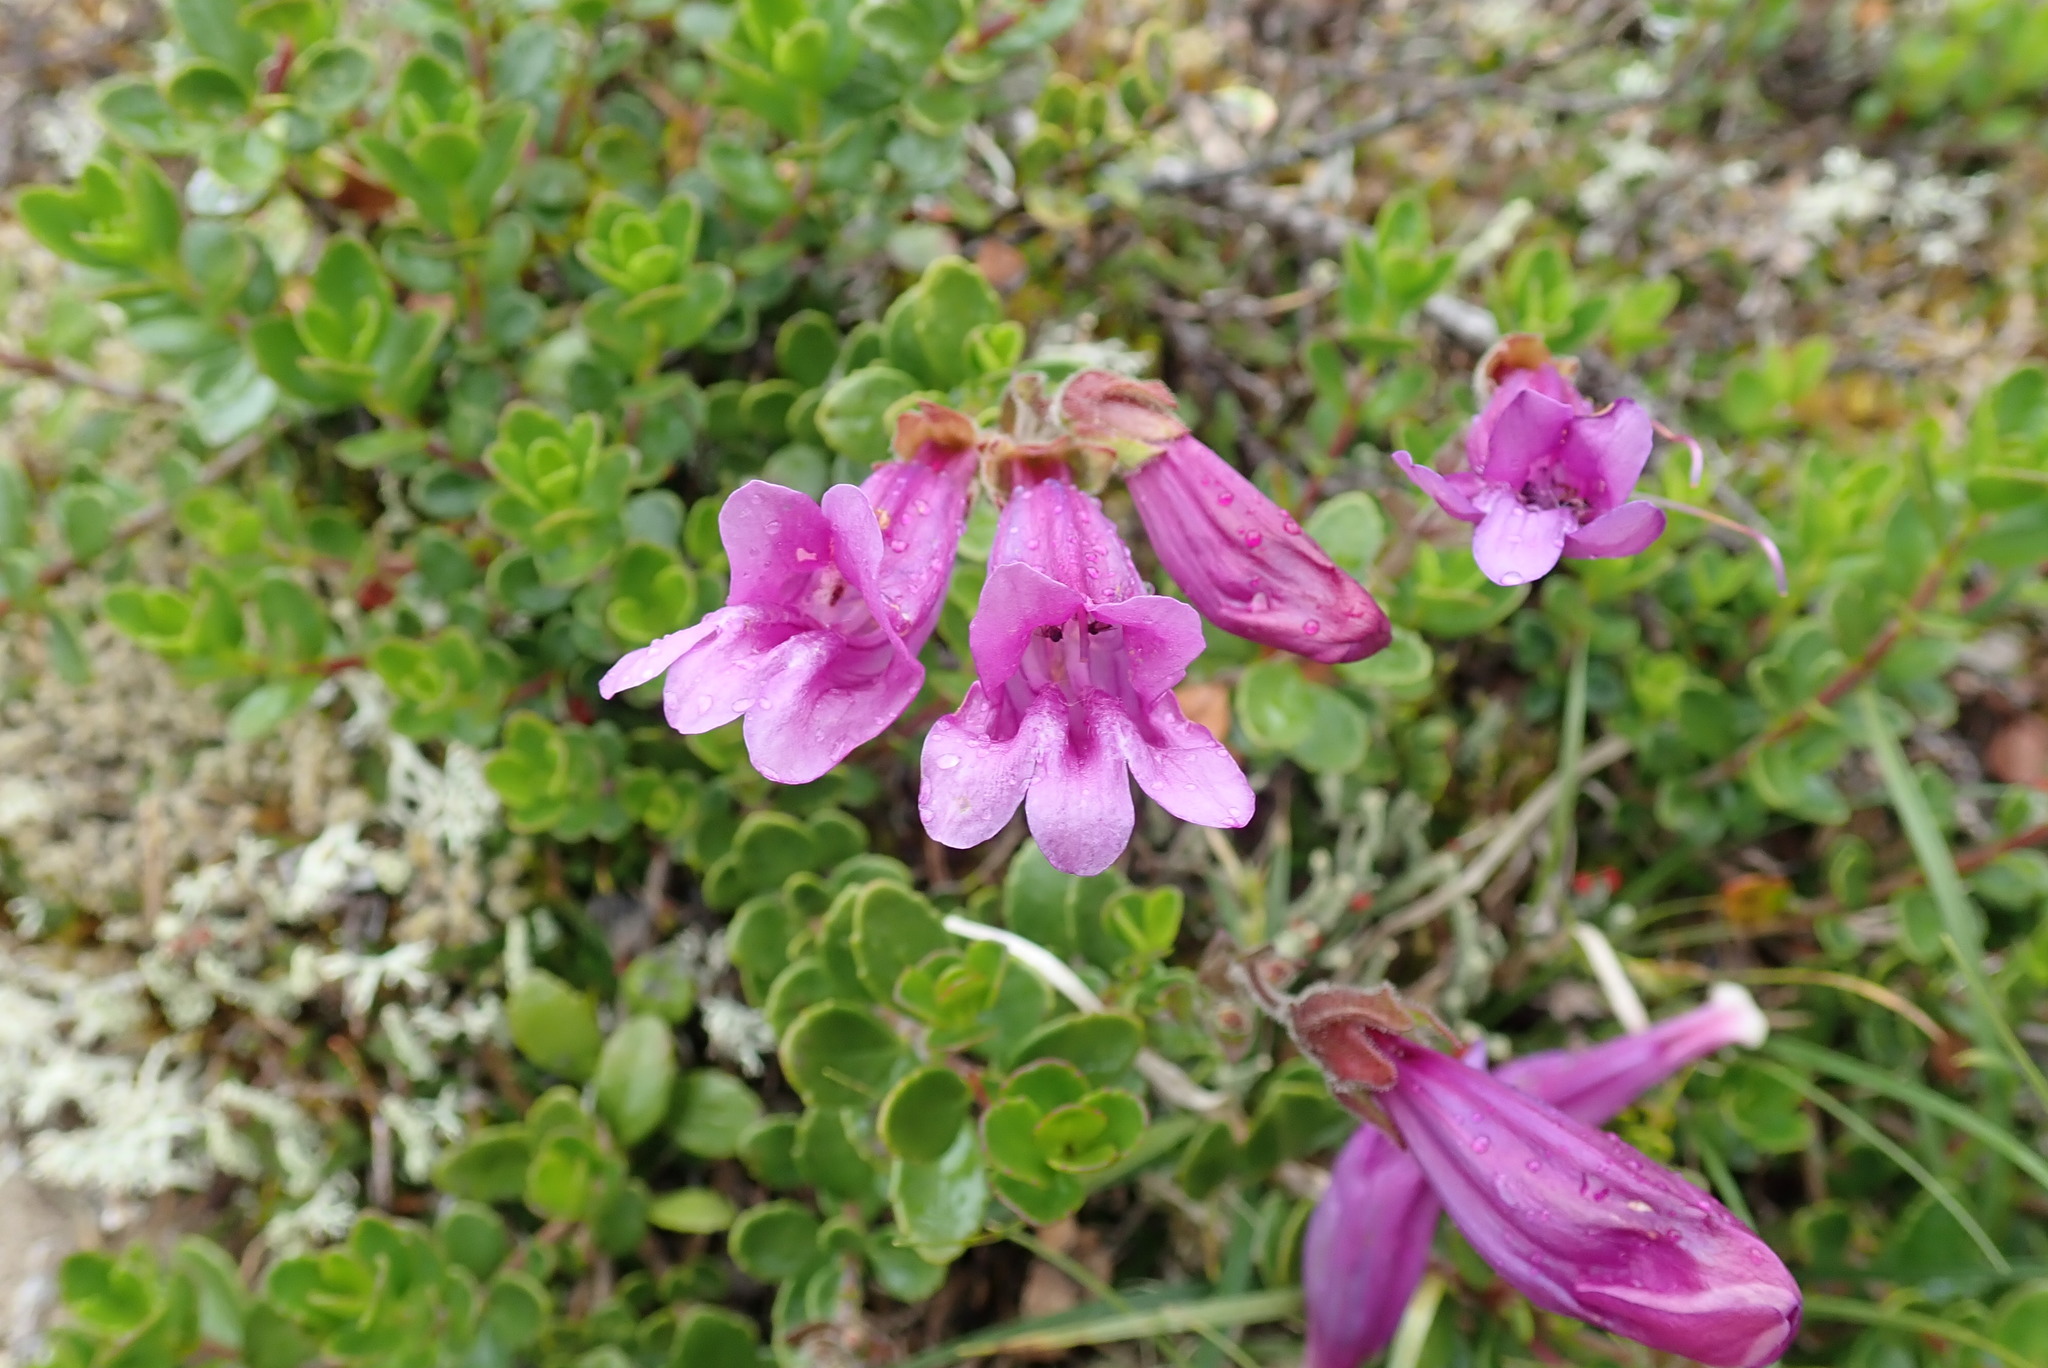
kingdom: Plantae
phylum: Tracheophyta
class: Magnoliopsida
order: Lamiales
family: Plantaginaceae
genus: Penstemon
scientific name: Penstemon davidsonii
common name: Davidson's penstemon
